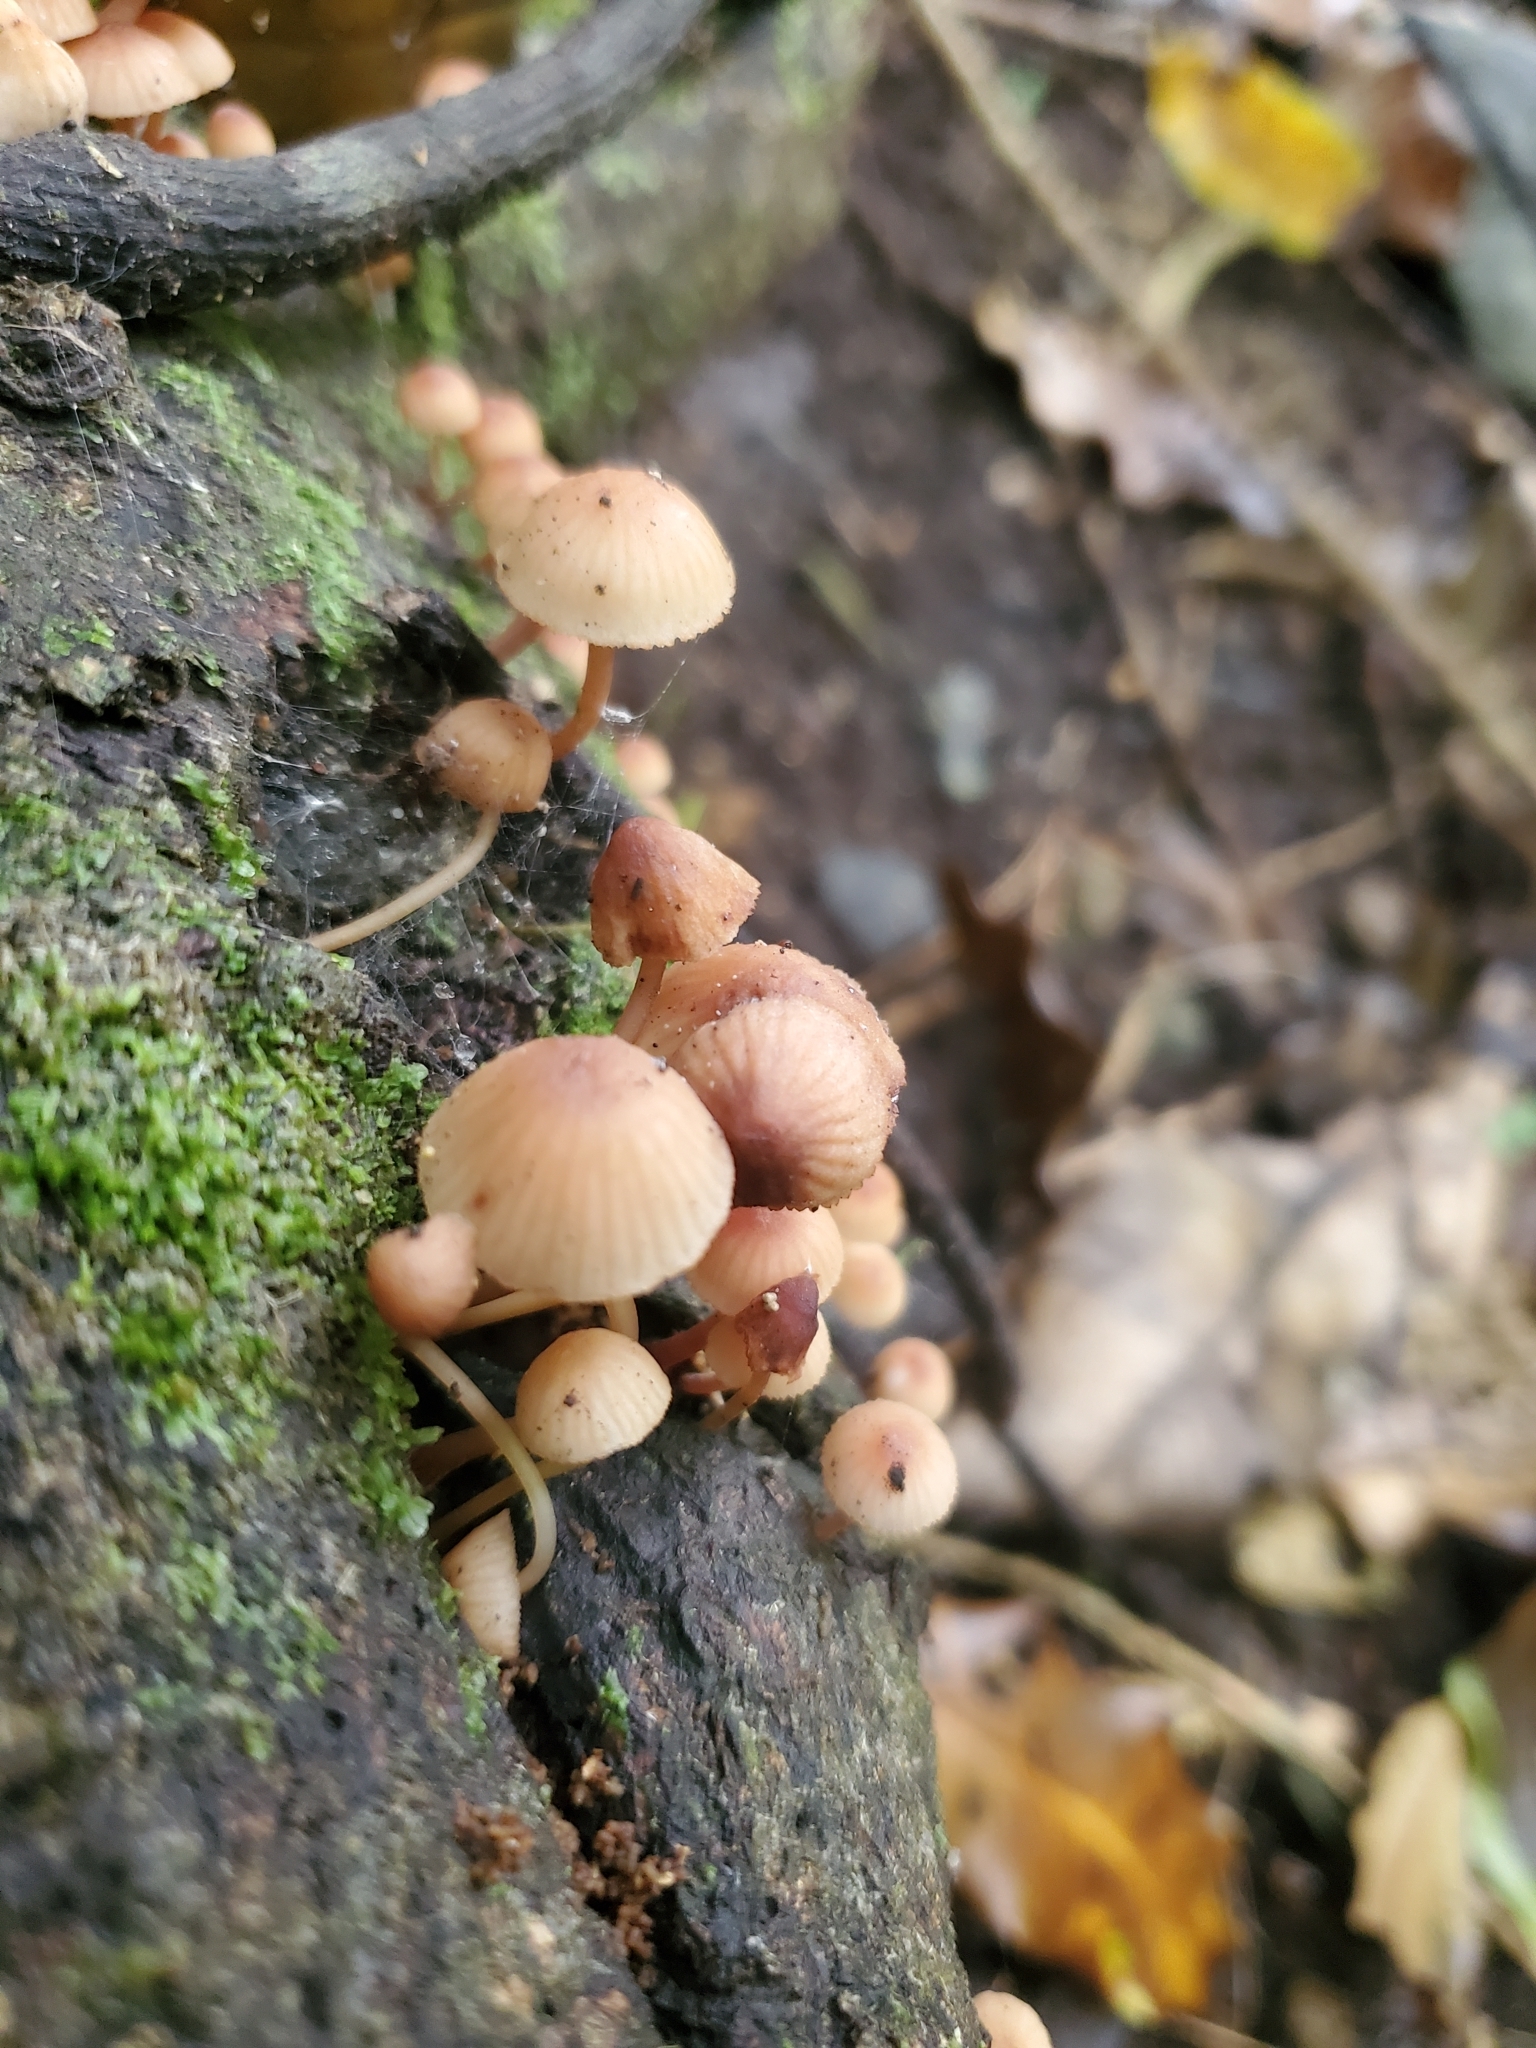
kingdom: Fungi
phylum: Basidiomycota
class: Agaricomycetes
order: Agaricales
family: Mycenaceae
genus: Mycena
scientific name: Mycena mariae
